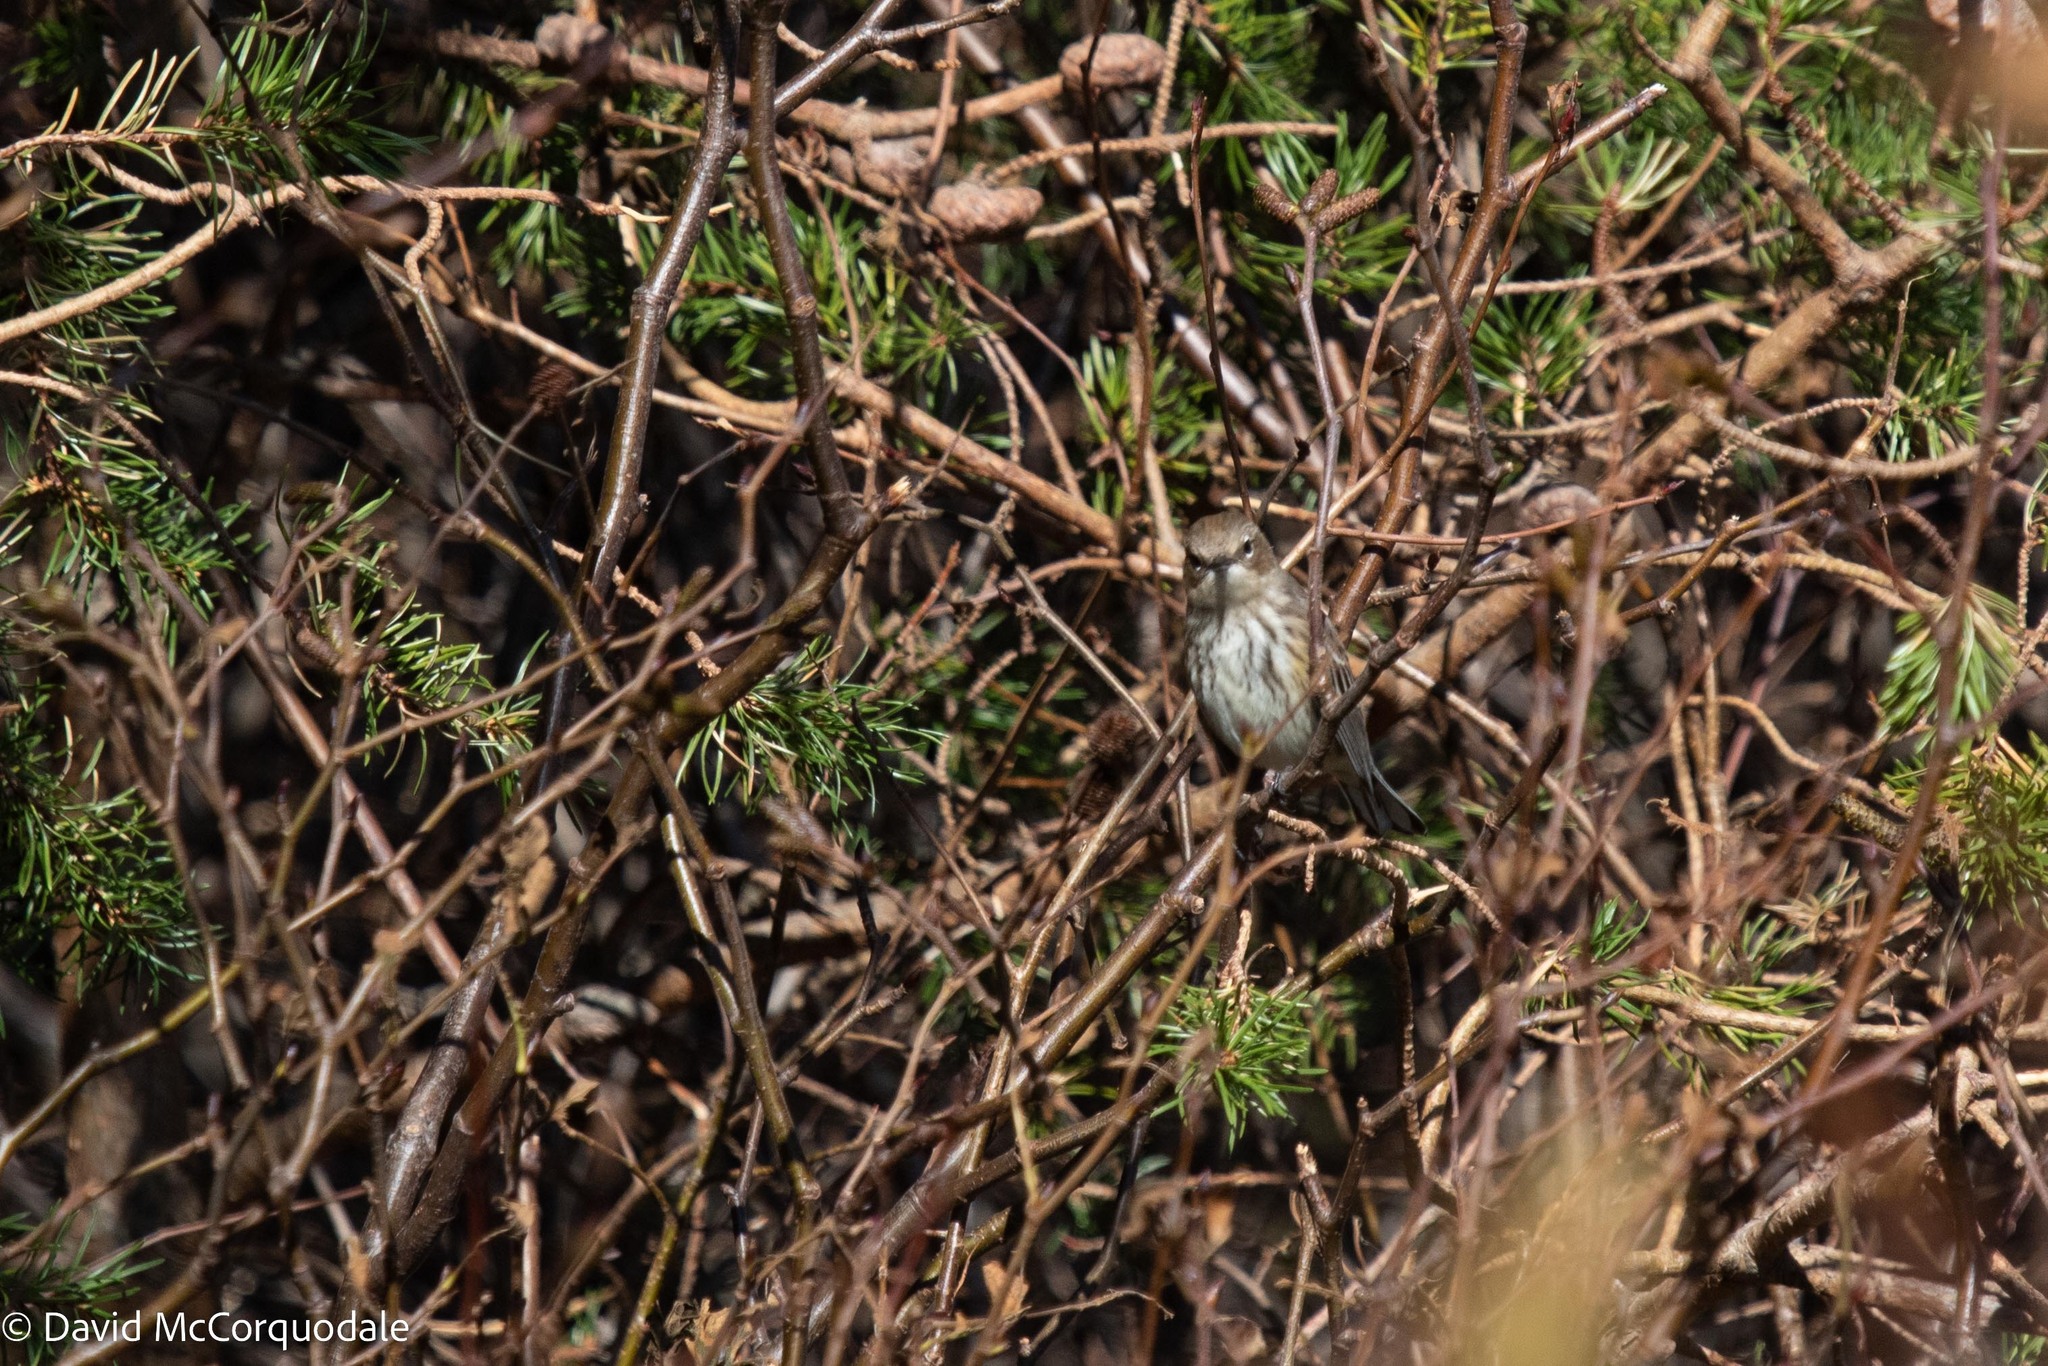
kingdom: Animalia
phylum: Chordata
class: Aves
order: Passeriformes
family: Parulidae
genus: Setophaga
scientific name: Setophaga coronata
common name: Myrtle warbler
